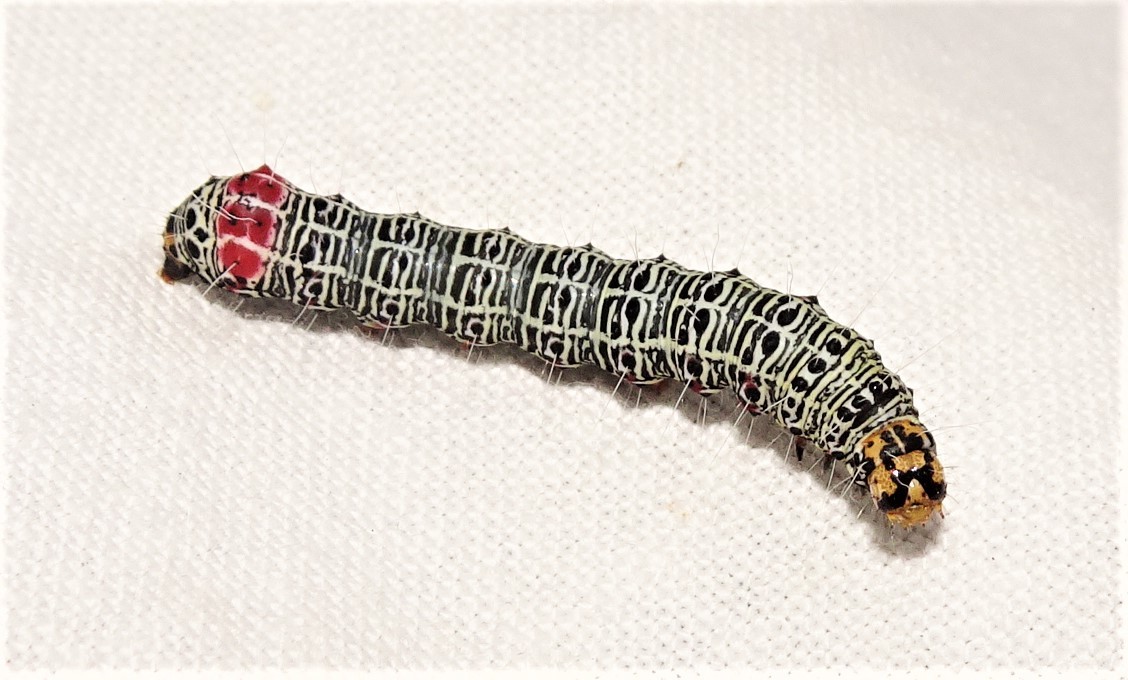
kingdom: Animalia
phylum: Arthropoda
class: Insecta
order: Lepidoptera
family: Noctuidae
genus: Phalaenoides
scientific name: Phalaenoides glycinae
